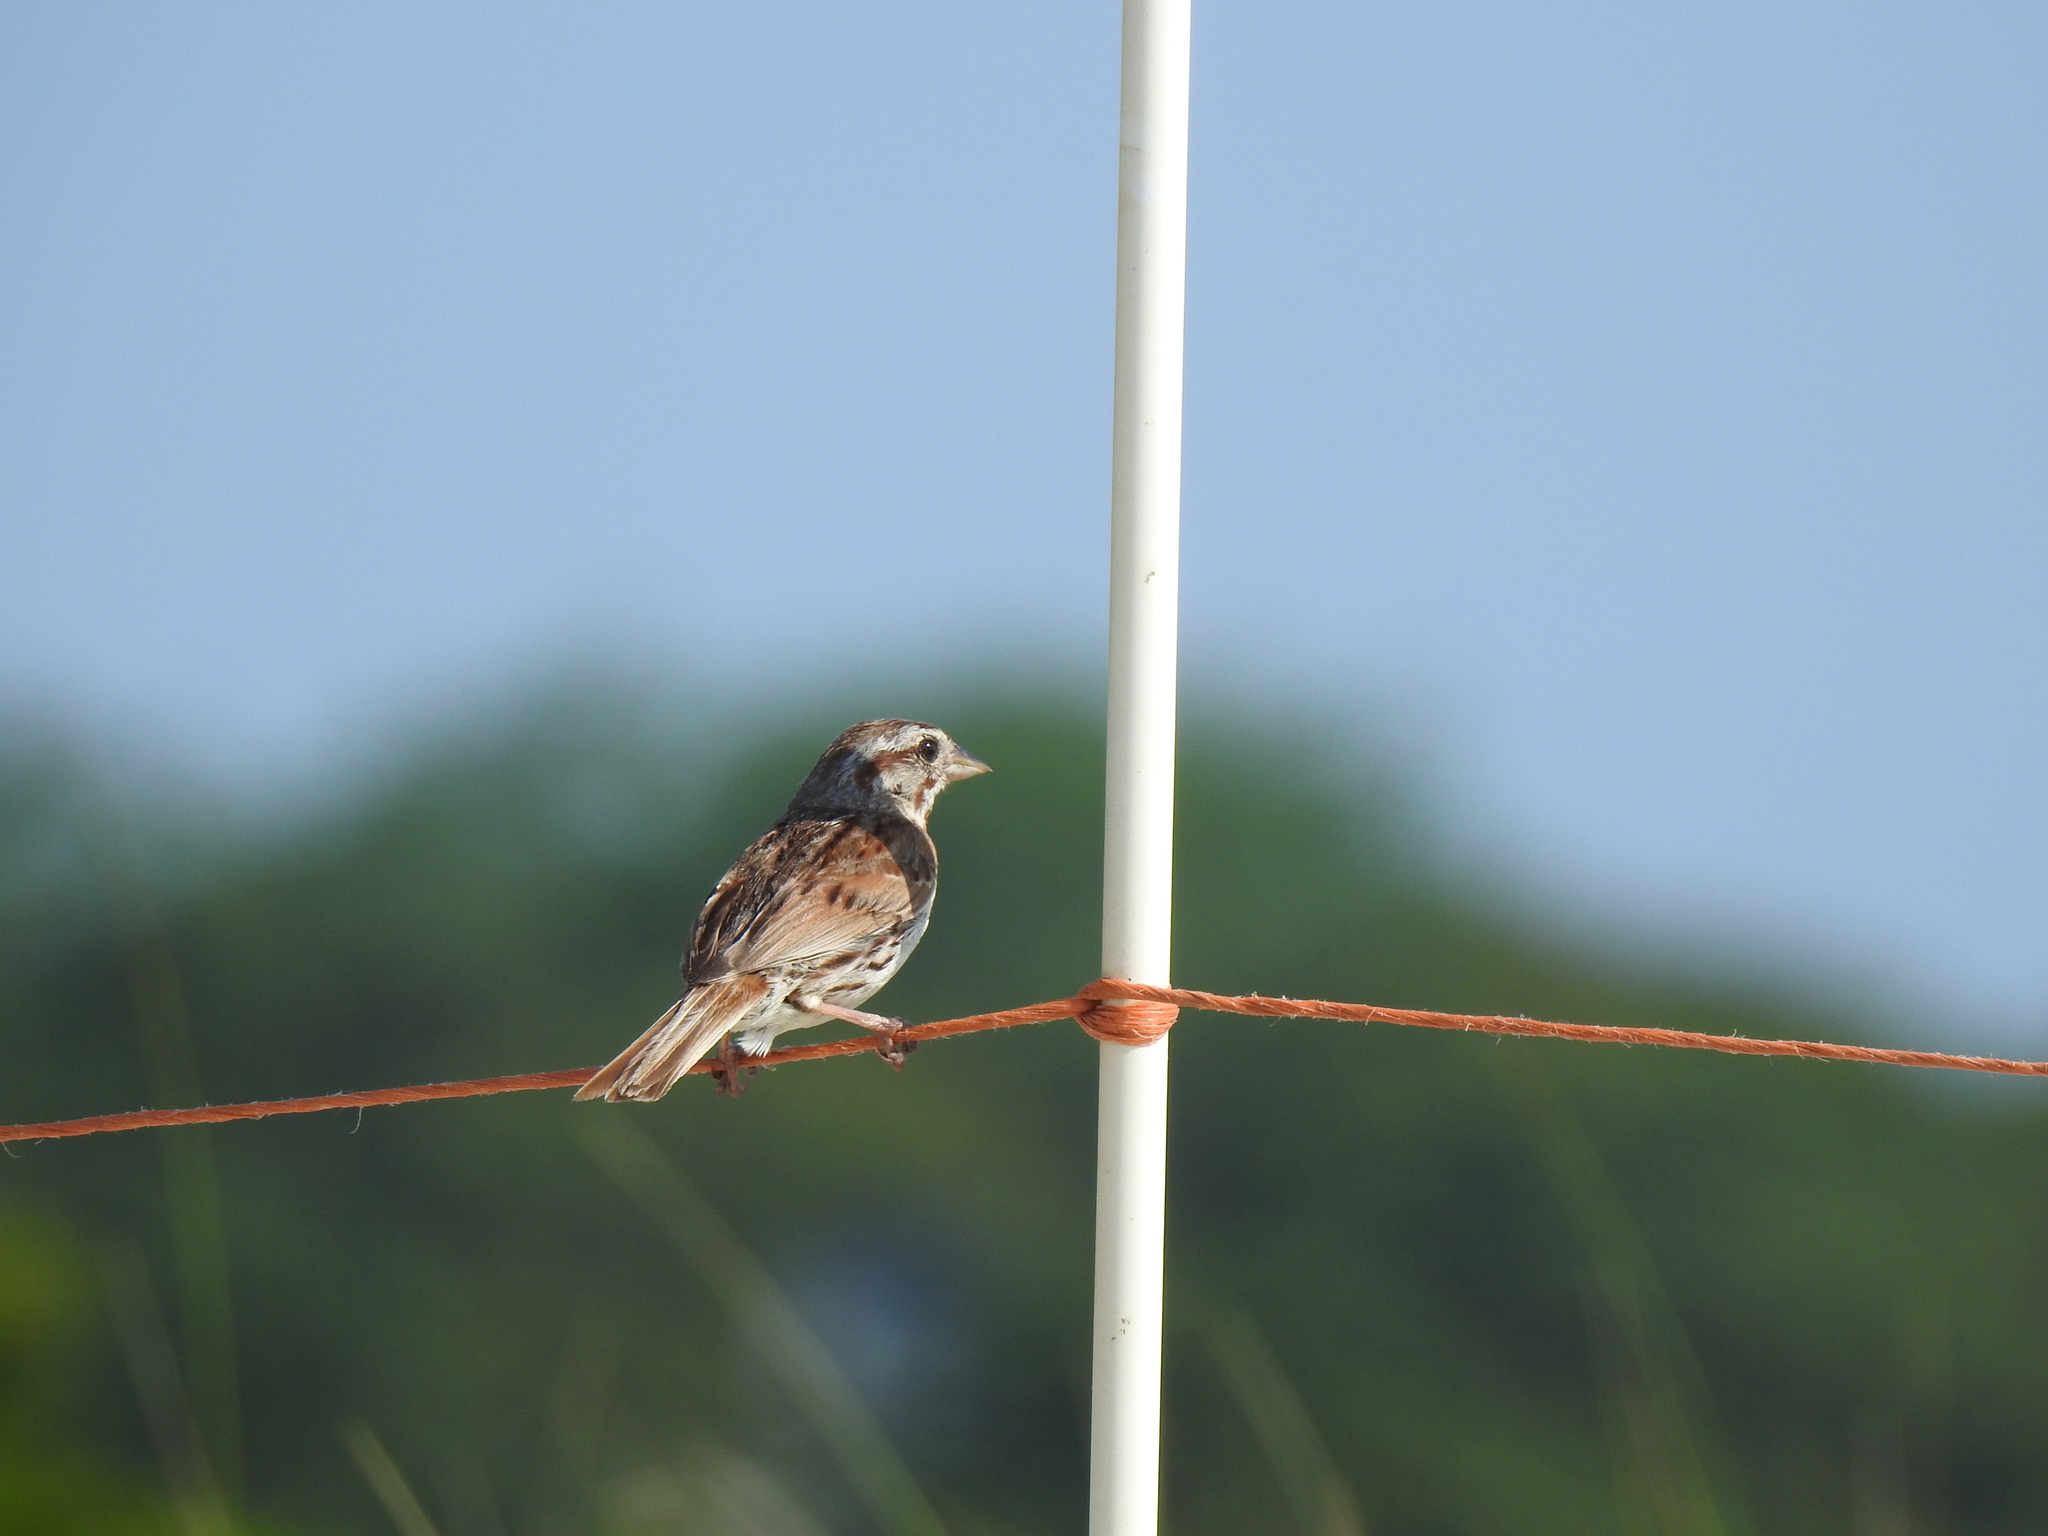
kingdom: Animalia
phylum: Chordata
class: Aves
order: Passeriformes
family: Passerellidae
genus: Melospiza
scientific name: Melospiza melodia
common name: Song sparrow
